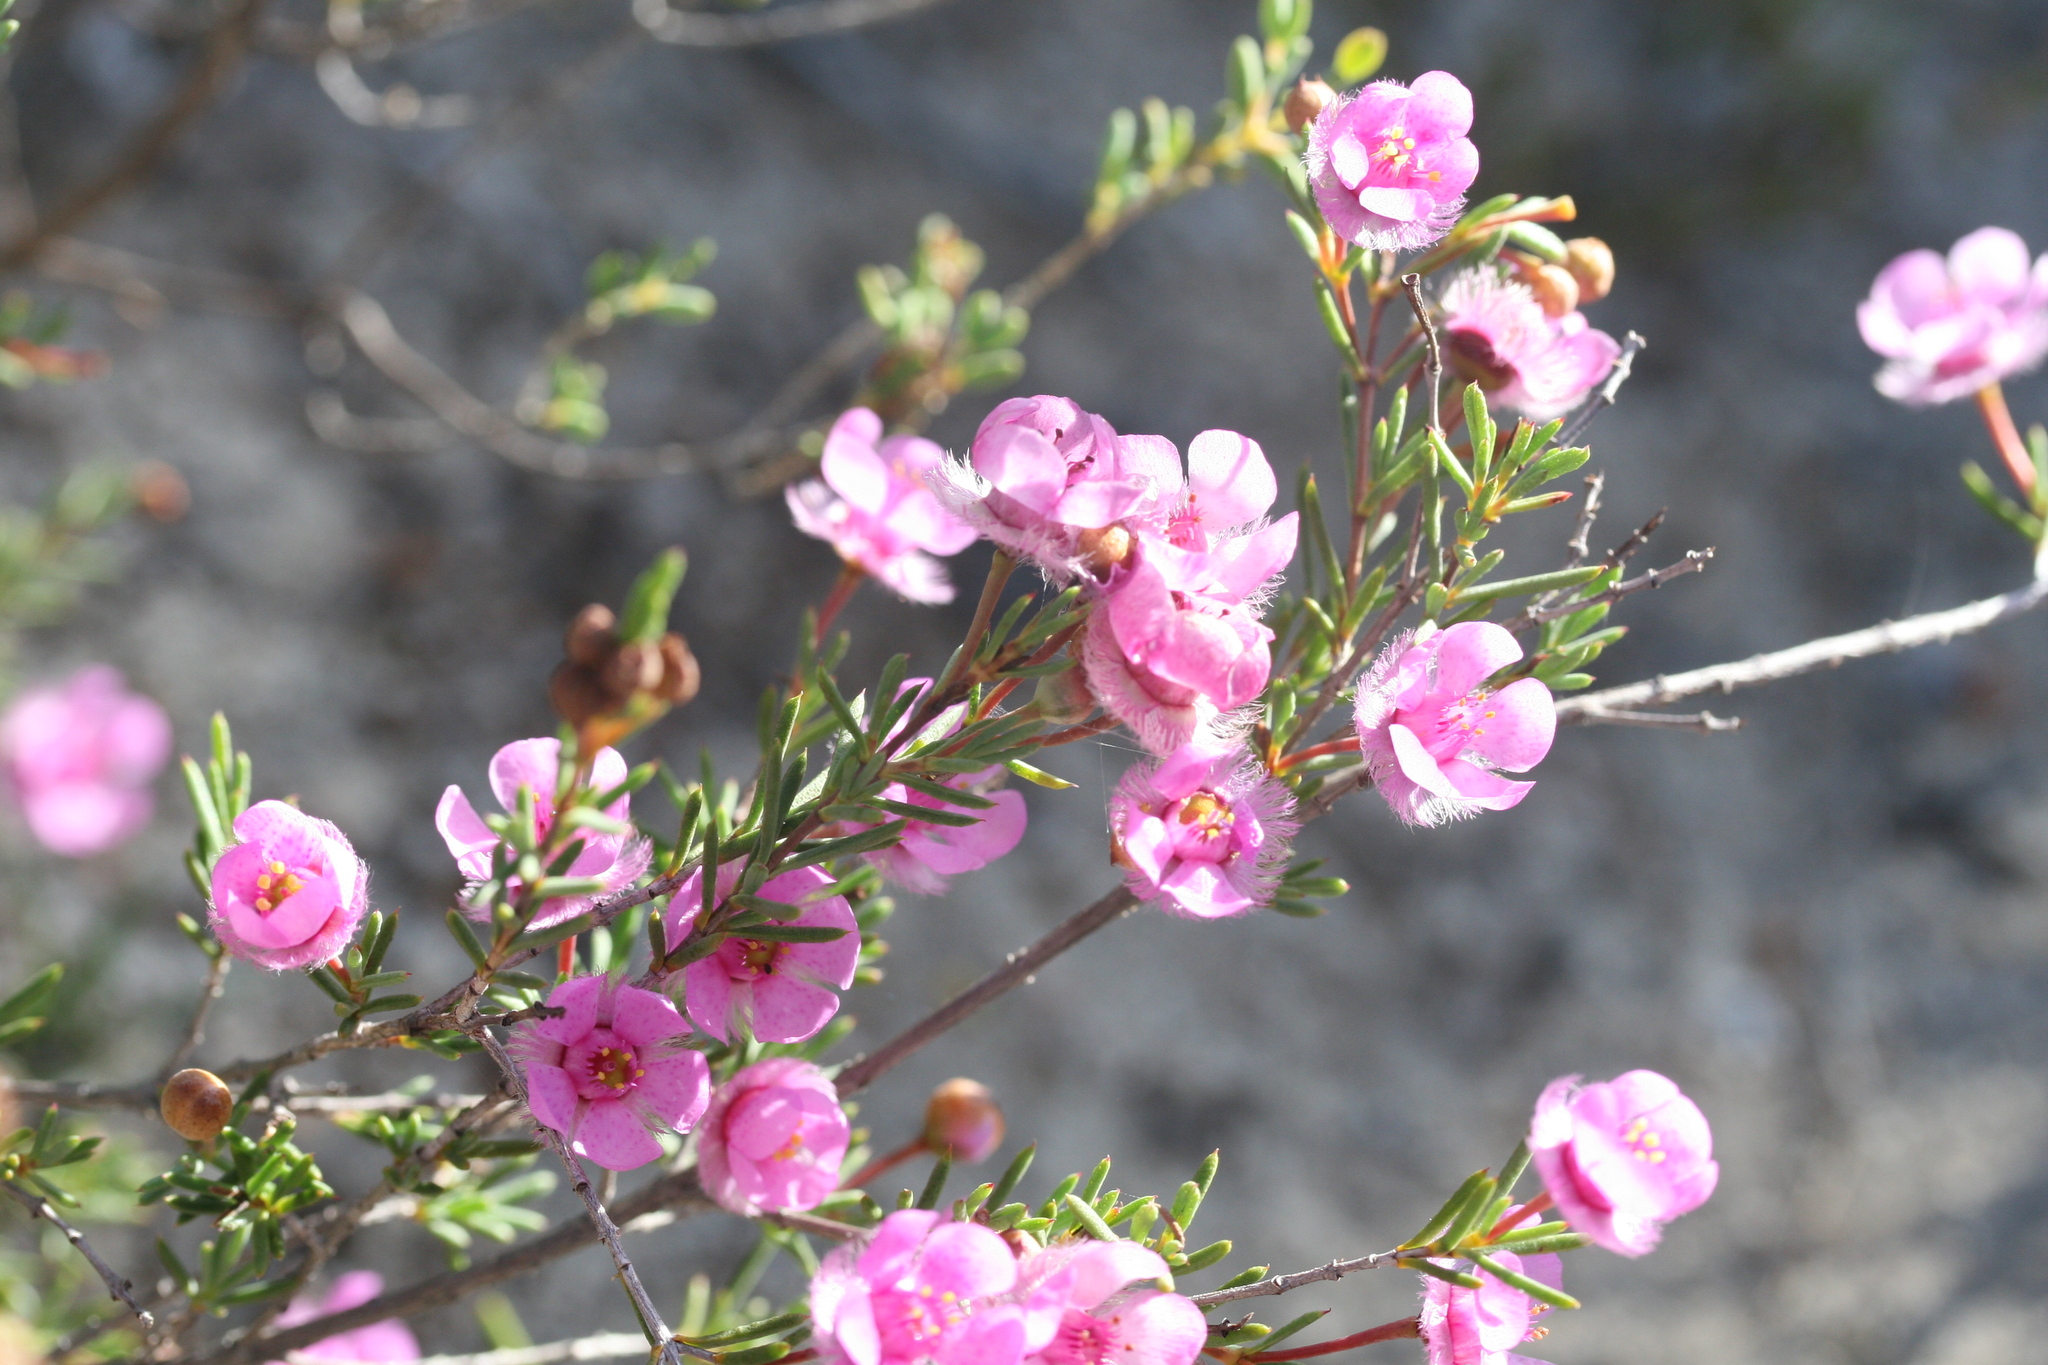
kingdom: Plantae
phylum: Tracheophyta
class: Magnoliopsida
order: Myrtales
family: Myrtaceae
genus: Verticordia
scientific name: Verticordia picta
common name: Painted feather-flower
